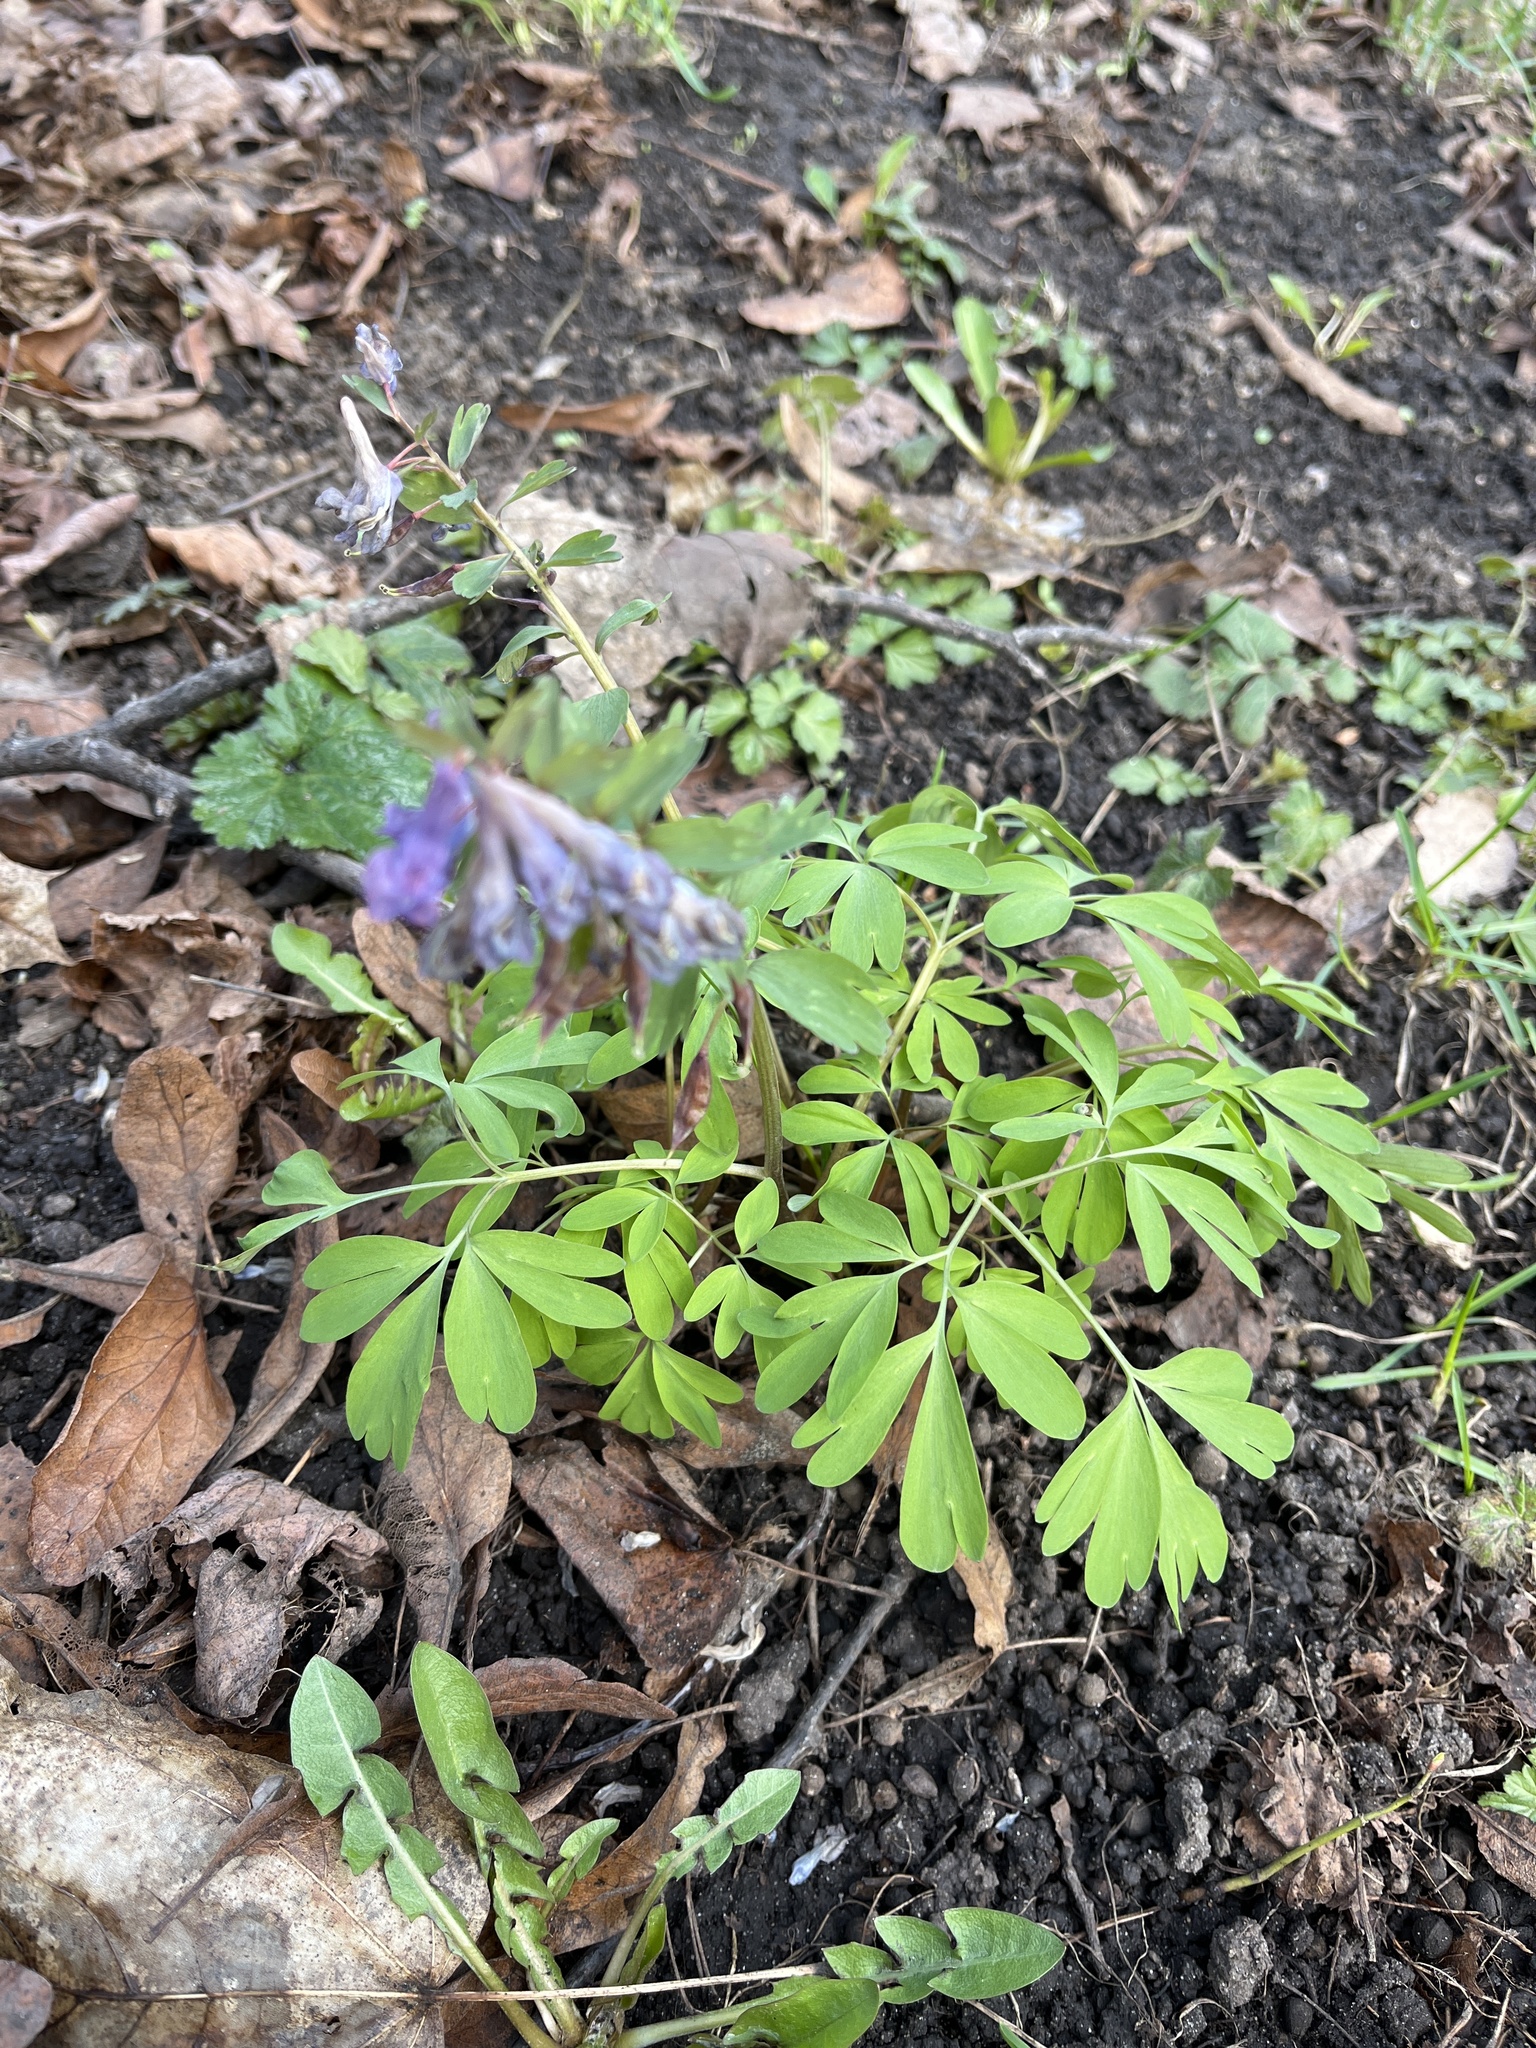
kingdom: Plantae
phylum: Tracheophyta
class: Magnoliopsida
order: Ranunculales
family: Papaveraceae
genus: Corydalis
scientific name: Corydalis solida
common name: Bird-in-a-bush
